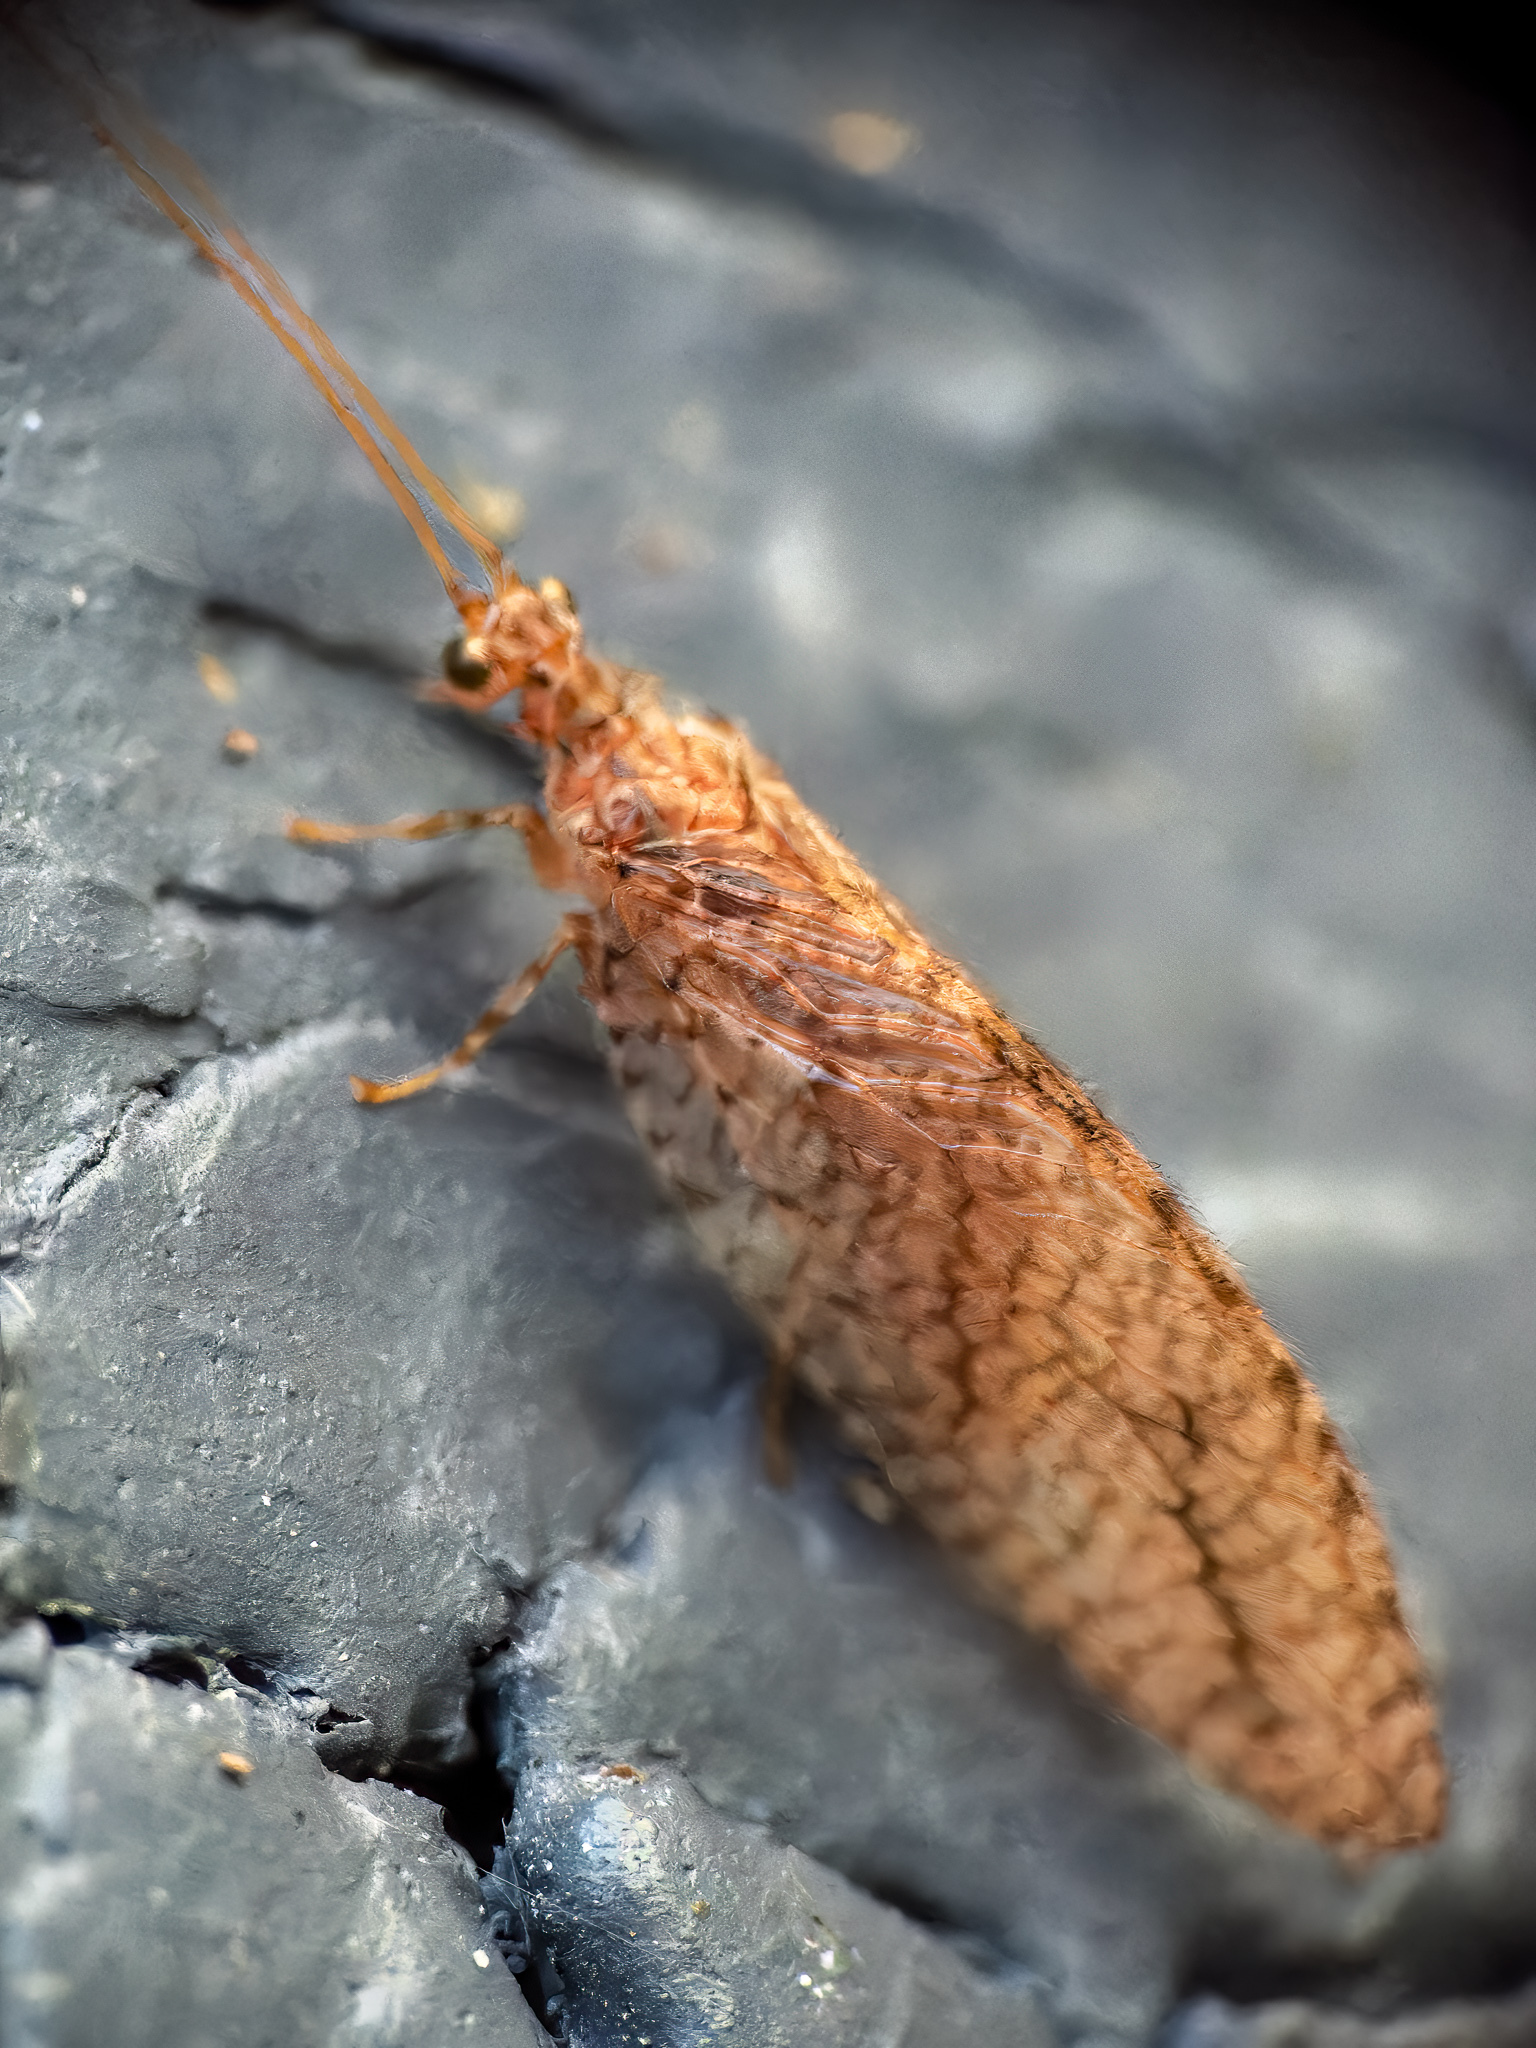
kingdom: Animalia
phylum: Arthropoda
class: Insecta
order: Neuroptera
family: Hemerobiidae
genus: Micromus
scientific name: Micromus posticus
